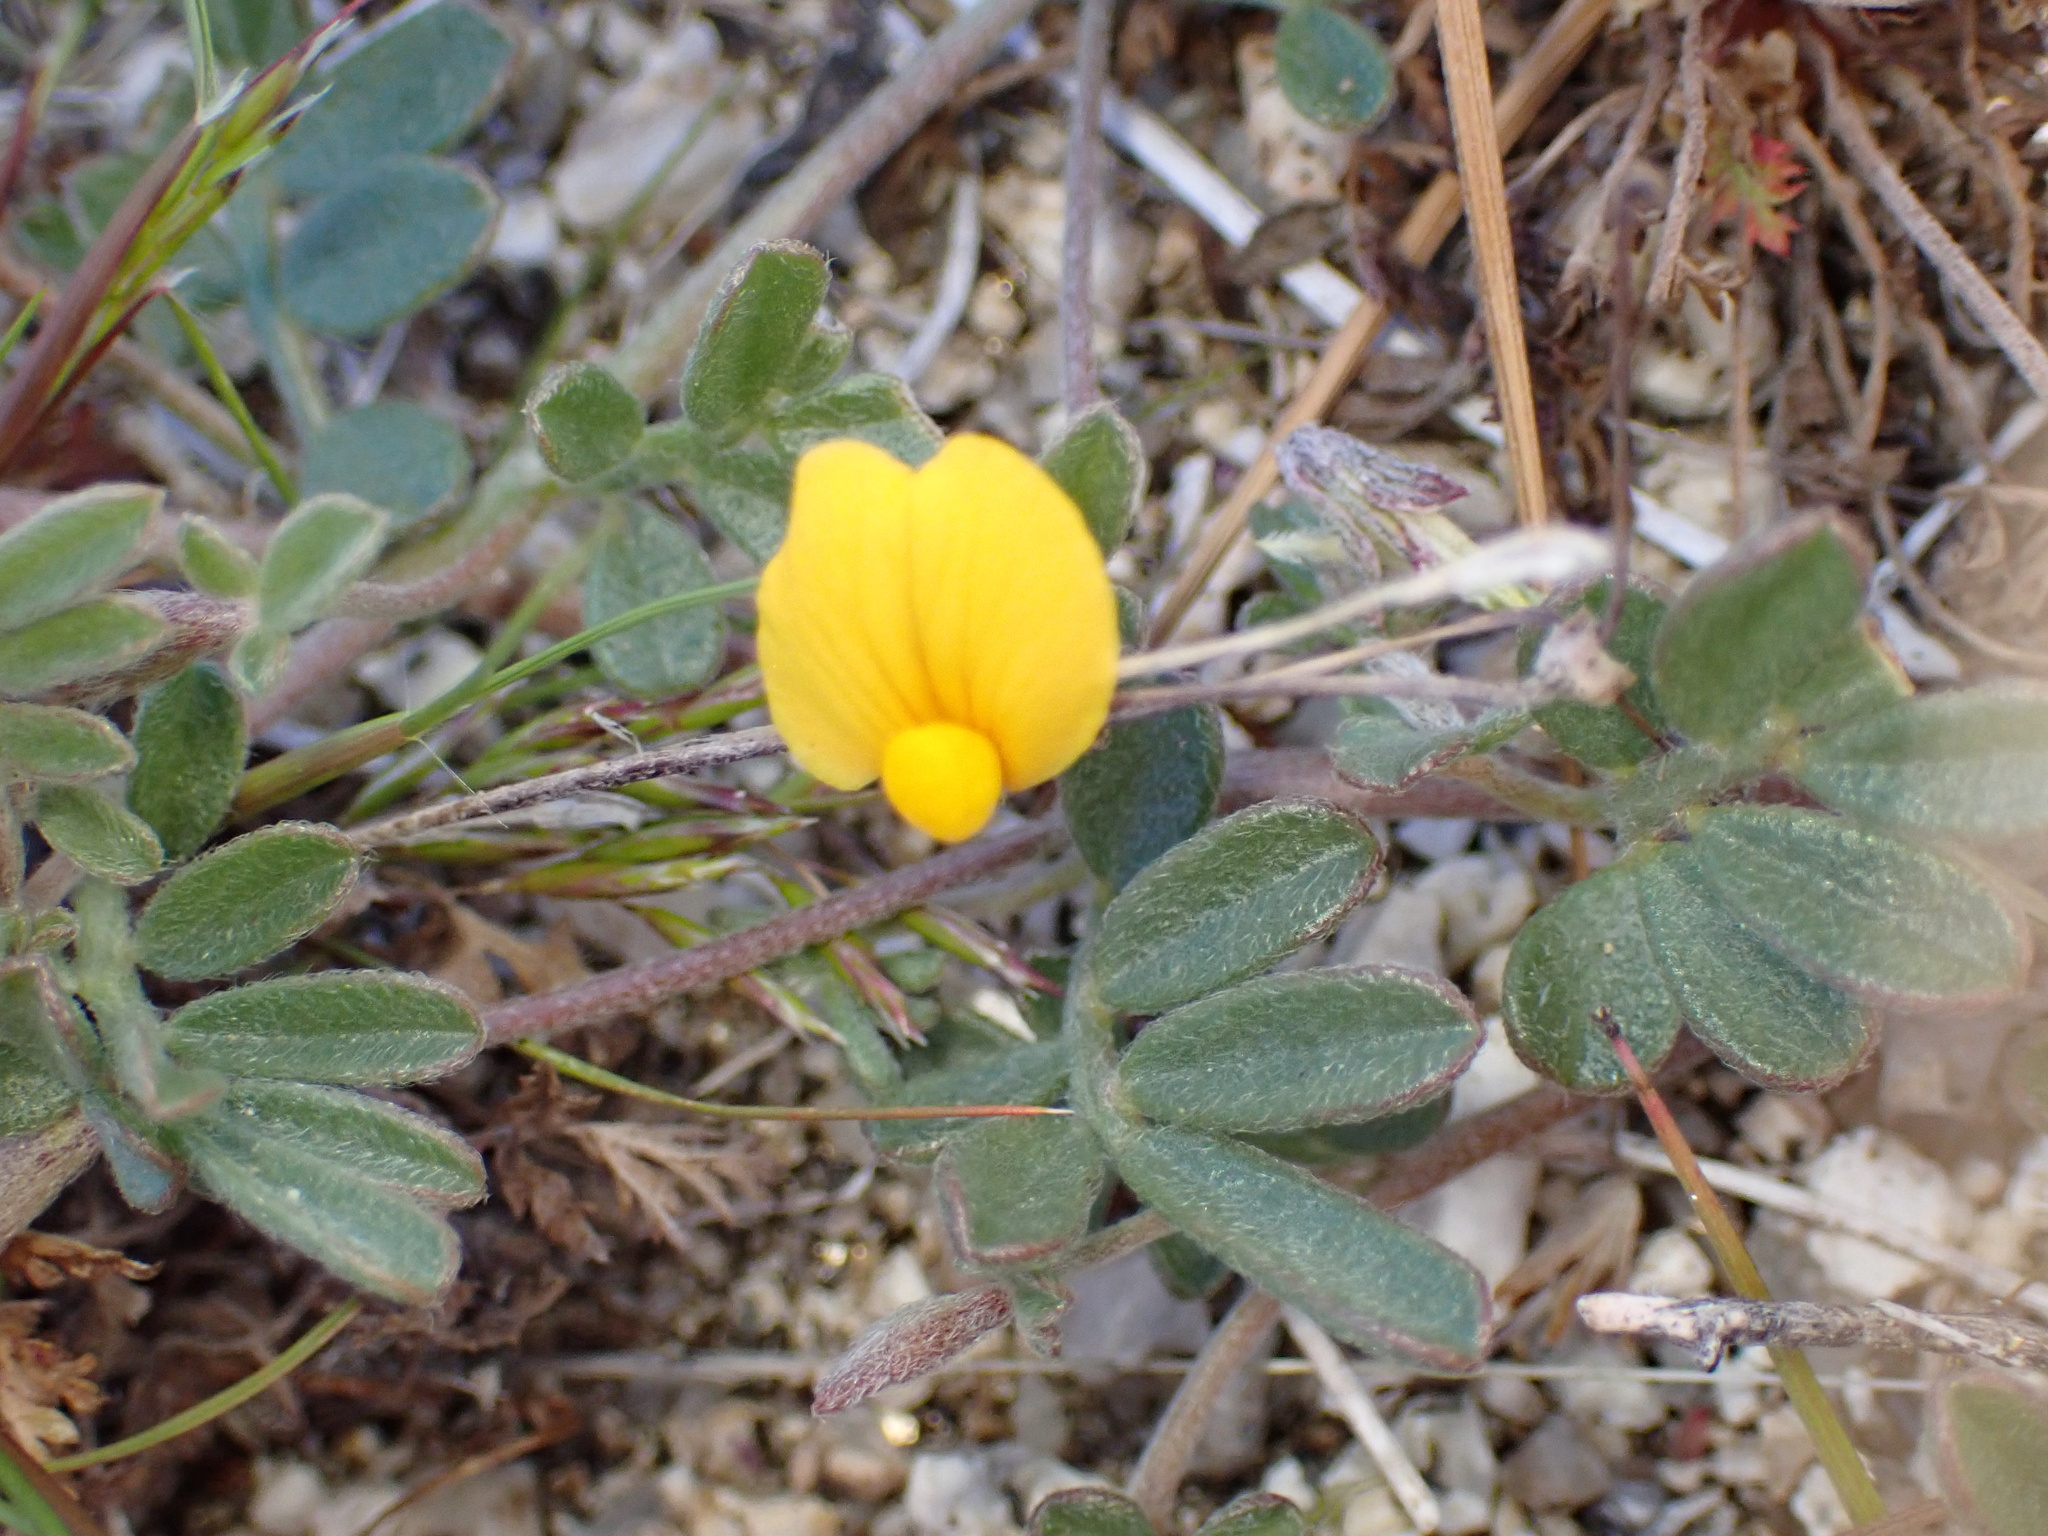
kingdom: Plantae
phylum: Tracheophyta
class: Magnoliopsida
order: Fabales
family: Fabaceae
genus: Acmispon
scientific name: Acmispon strigosus
